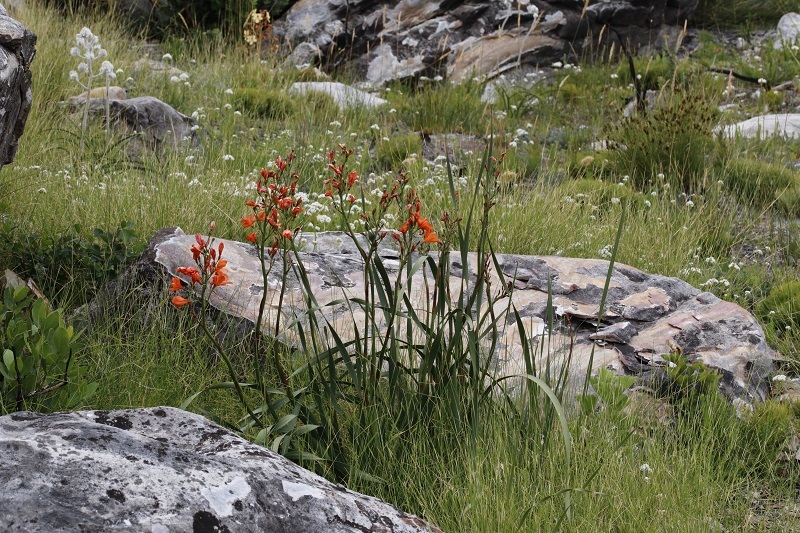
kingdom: Plantae
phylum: Tracheophyta
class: Liliopsida
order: Asparagales
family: Iridaceae
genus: Pillansia
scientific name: Pillansia templemannii
